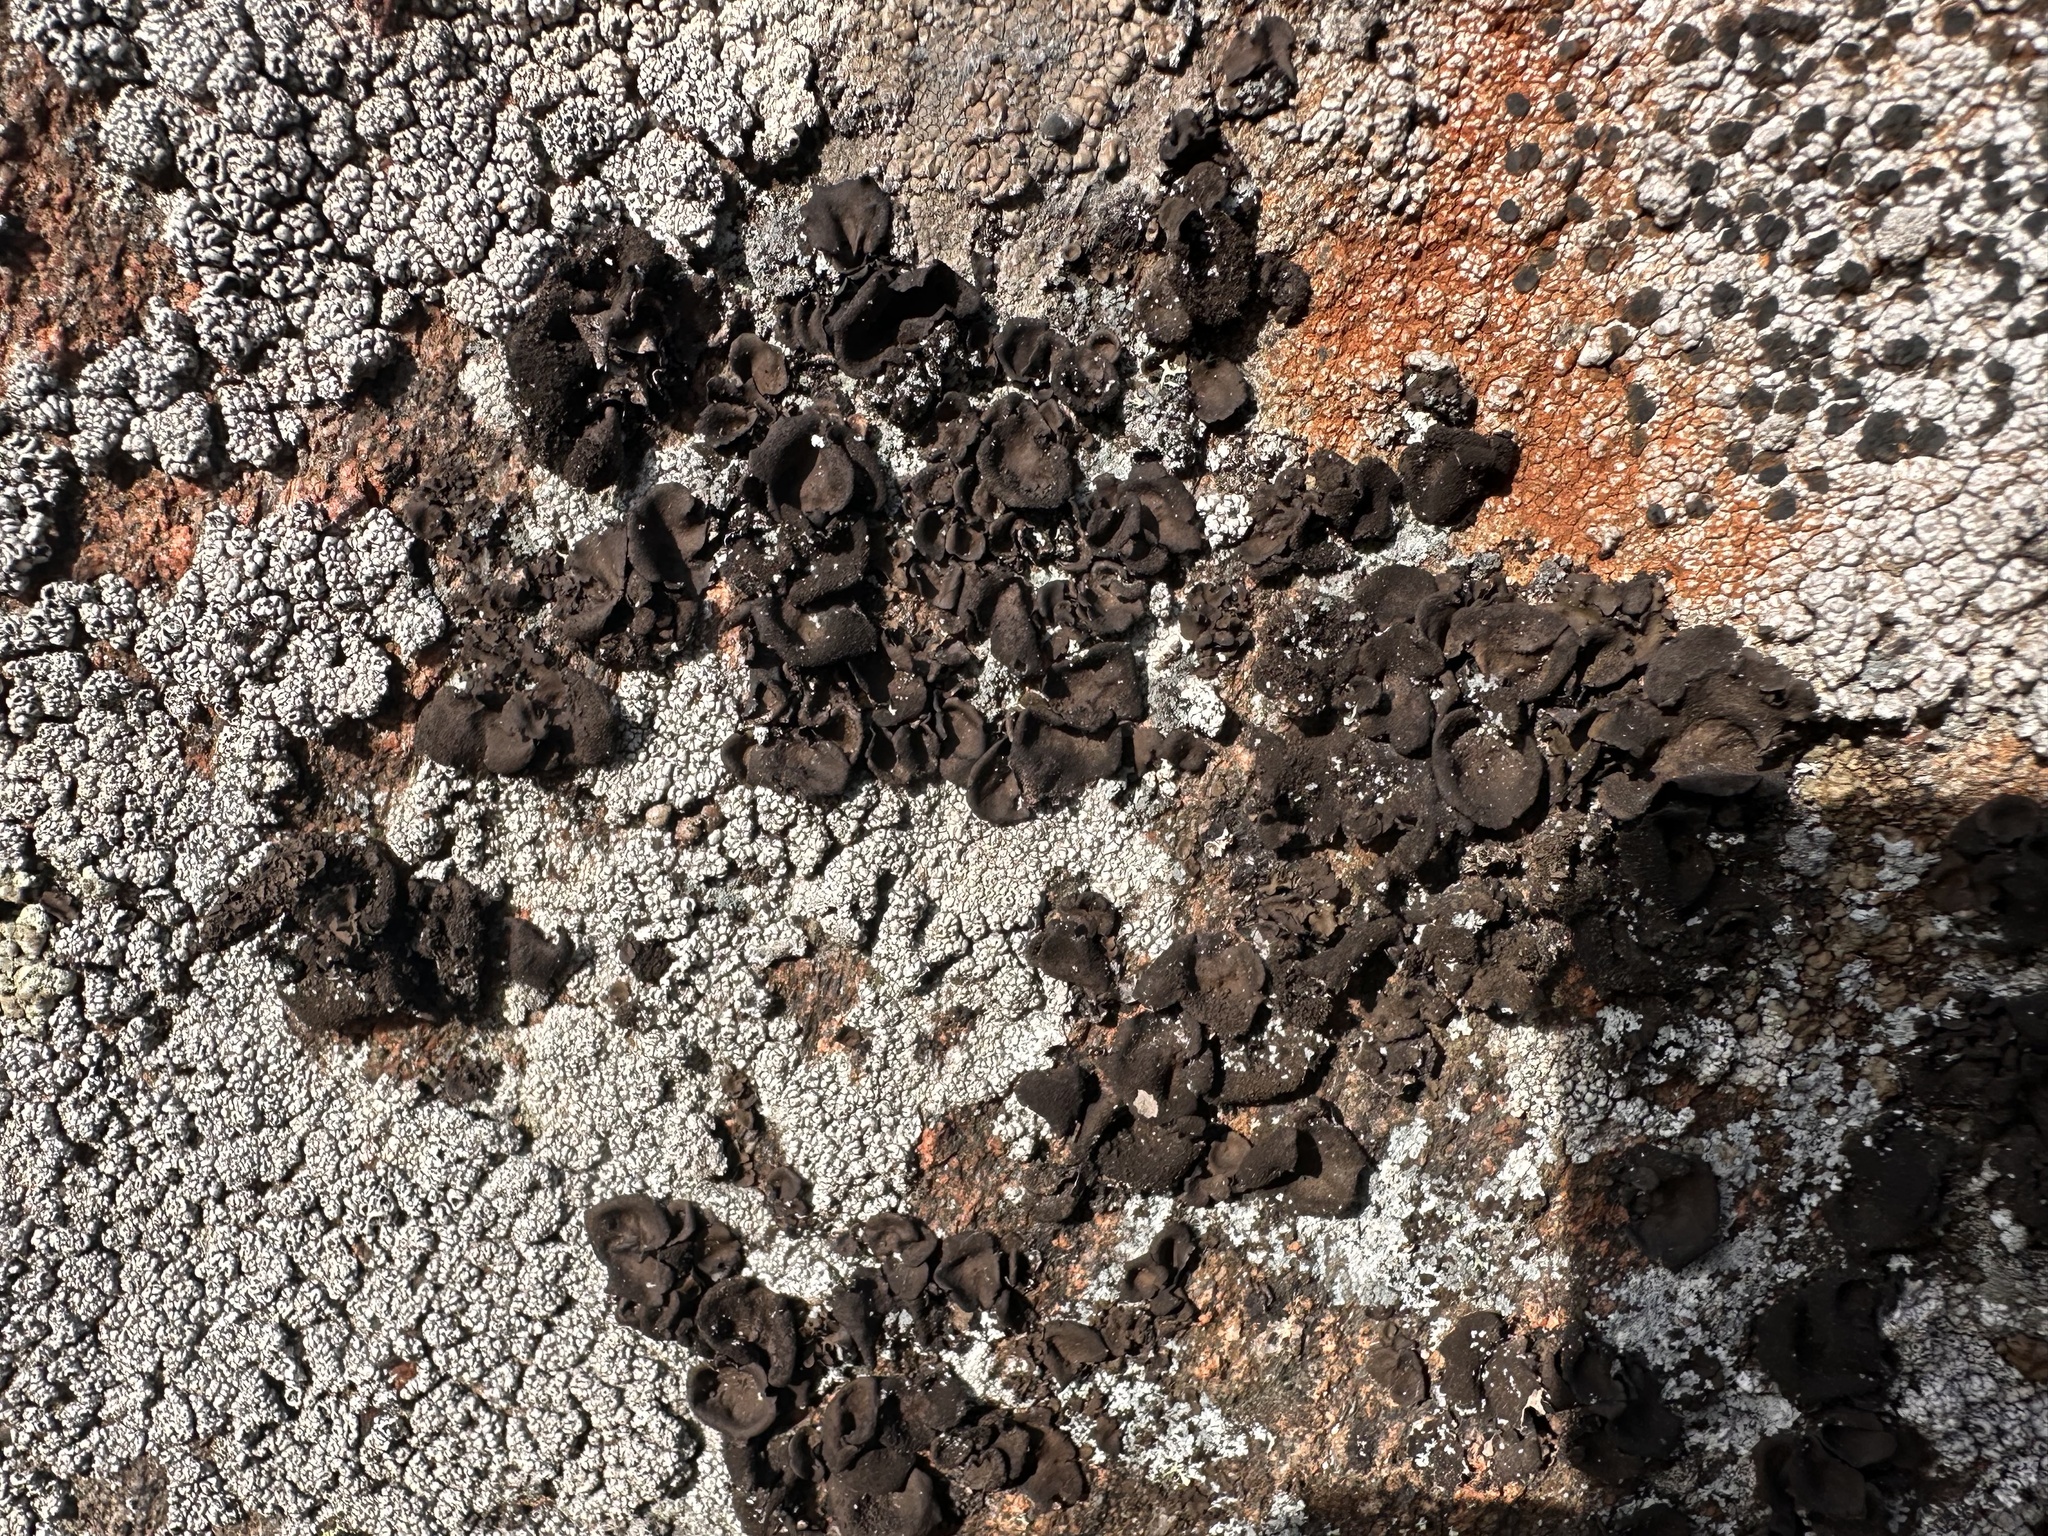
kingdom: Fungi
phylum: Ascomycota
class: Lecanoromycetes
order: Umbilicariales
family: Umbilicariaceae
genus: Umbilicaria
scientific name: Umbilicaria deusta
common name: Peppered rock tripe
